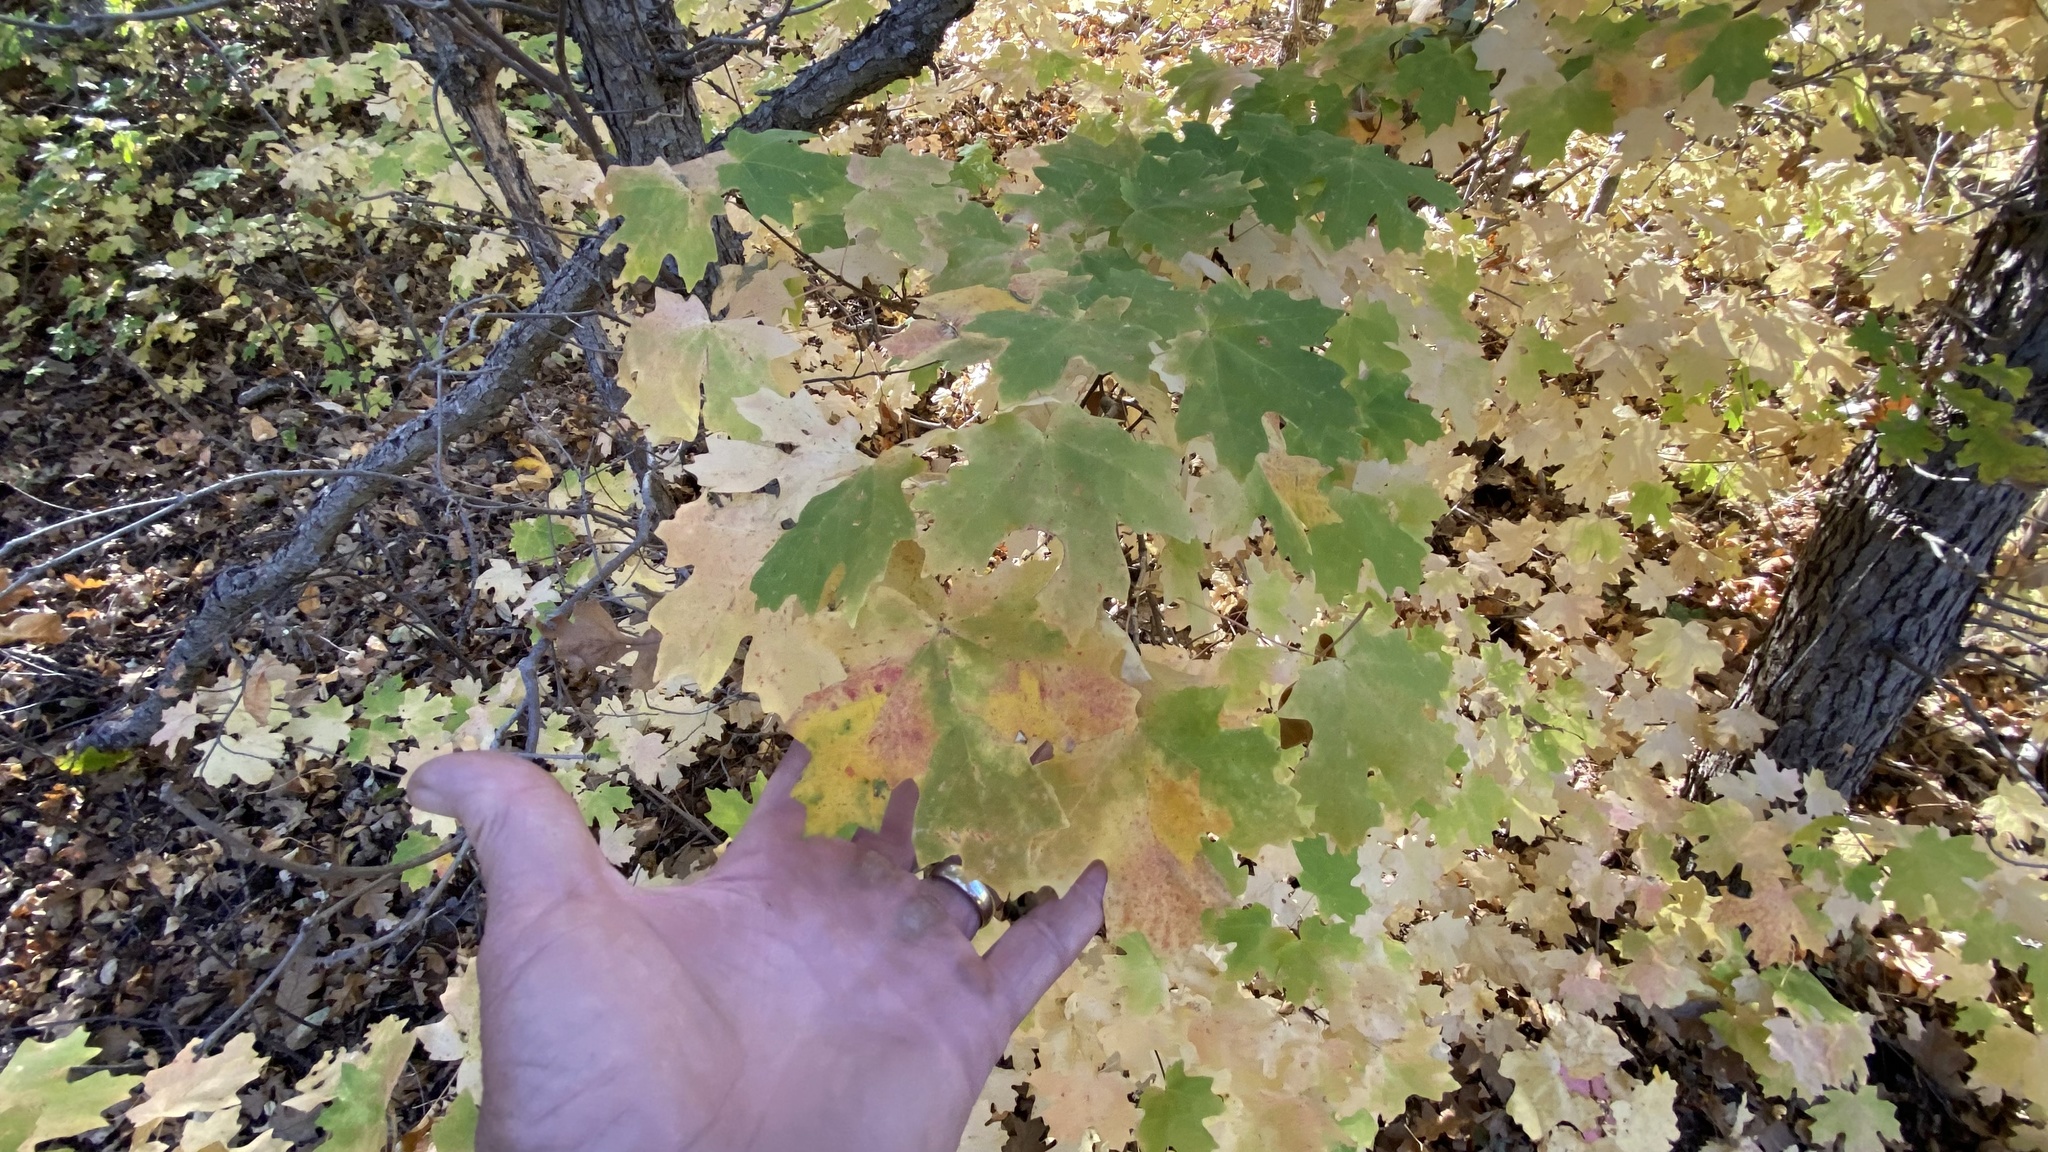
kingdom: Plantae
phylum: Tracheophyta
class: Magnoliopsida
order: Sapindales
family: Sapindaceae
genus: Acer
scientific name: Acer grandidentatum
